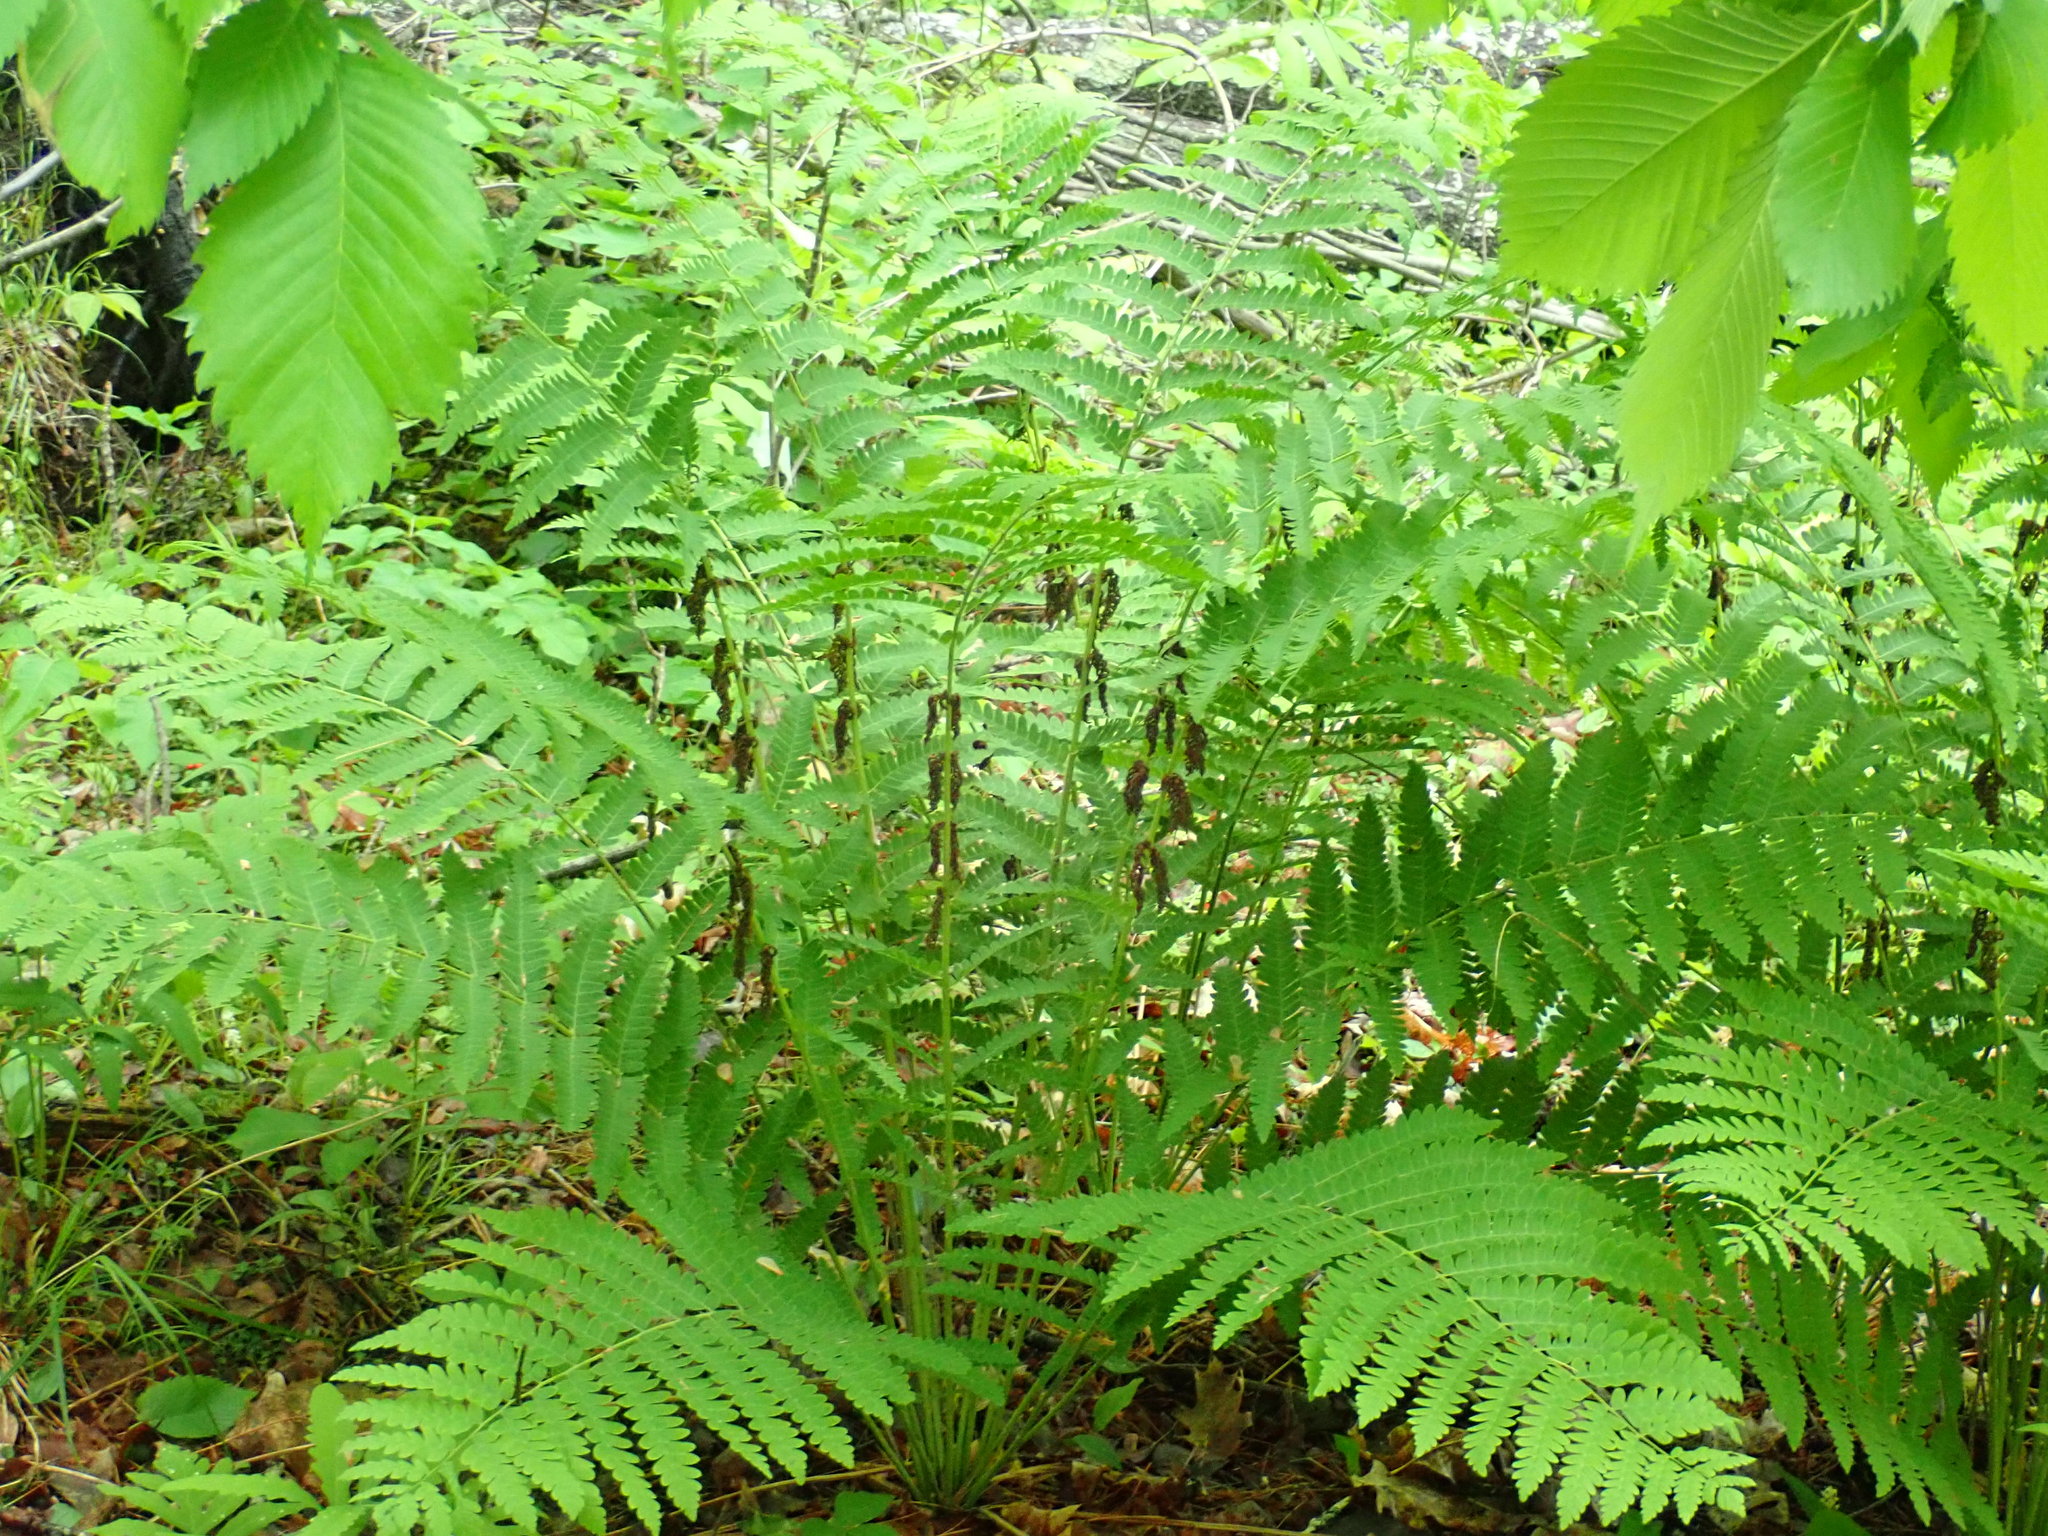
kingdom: Plantae
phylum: Tracheophyta
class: Polypodiopsida
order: Osmundales
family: Osmundaceae
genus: Claytosmunda
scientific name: Claytosmunda claytoniana
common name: Clayton's fern
